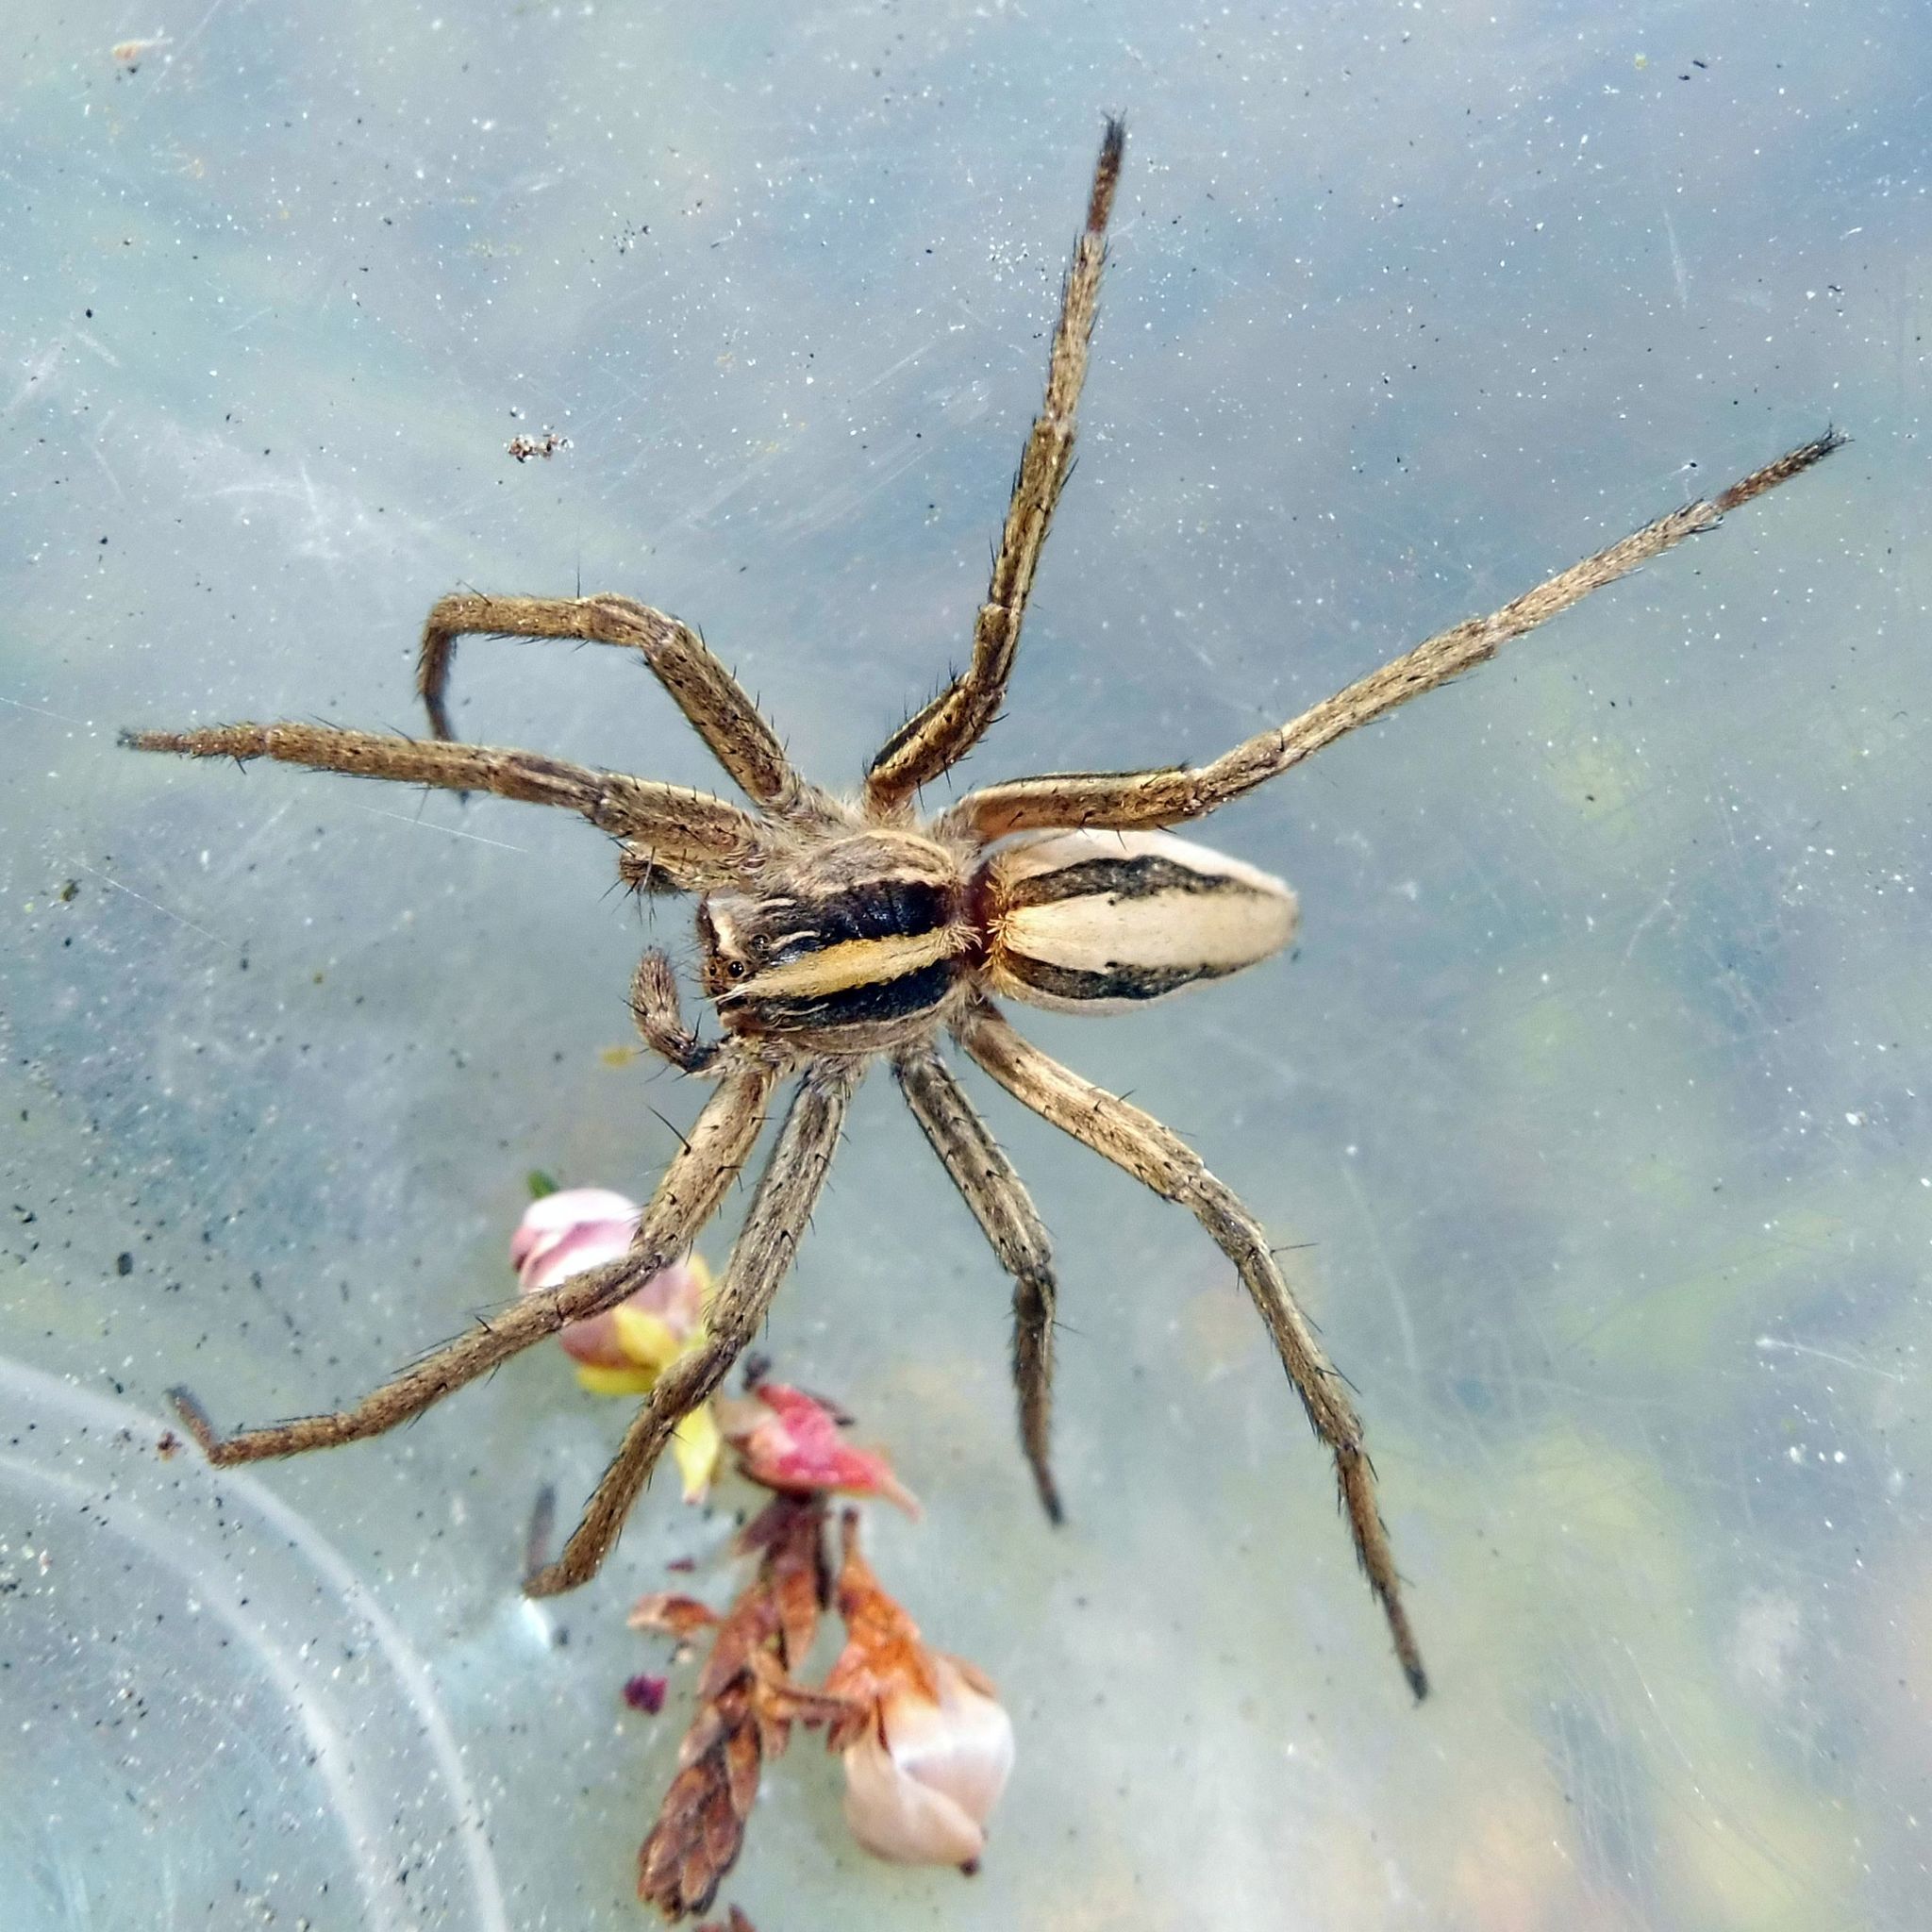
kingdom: Animalia
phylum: Arthropoda
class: Arachnida
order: Araneae
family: Pisauridae
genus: Pisaura
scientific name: Pisaura mirabilis
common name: Tent spider
